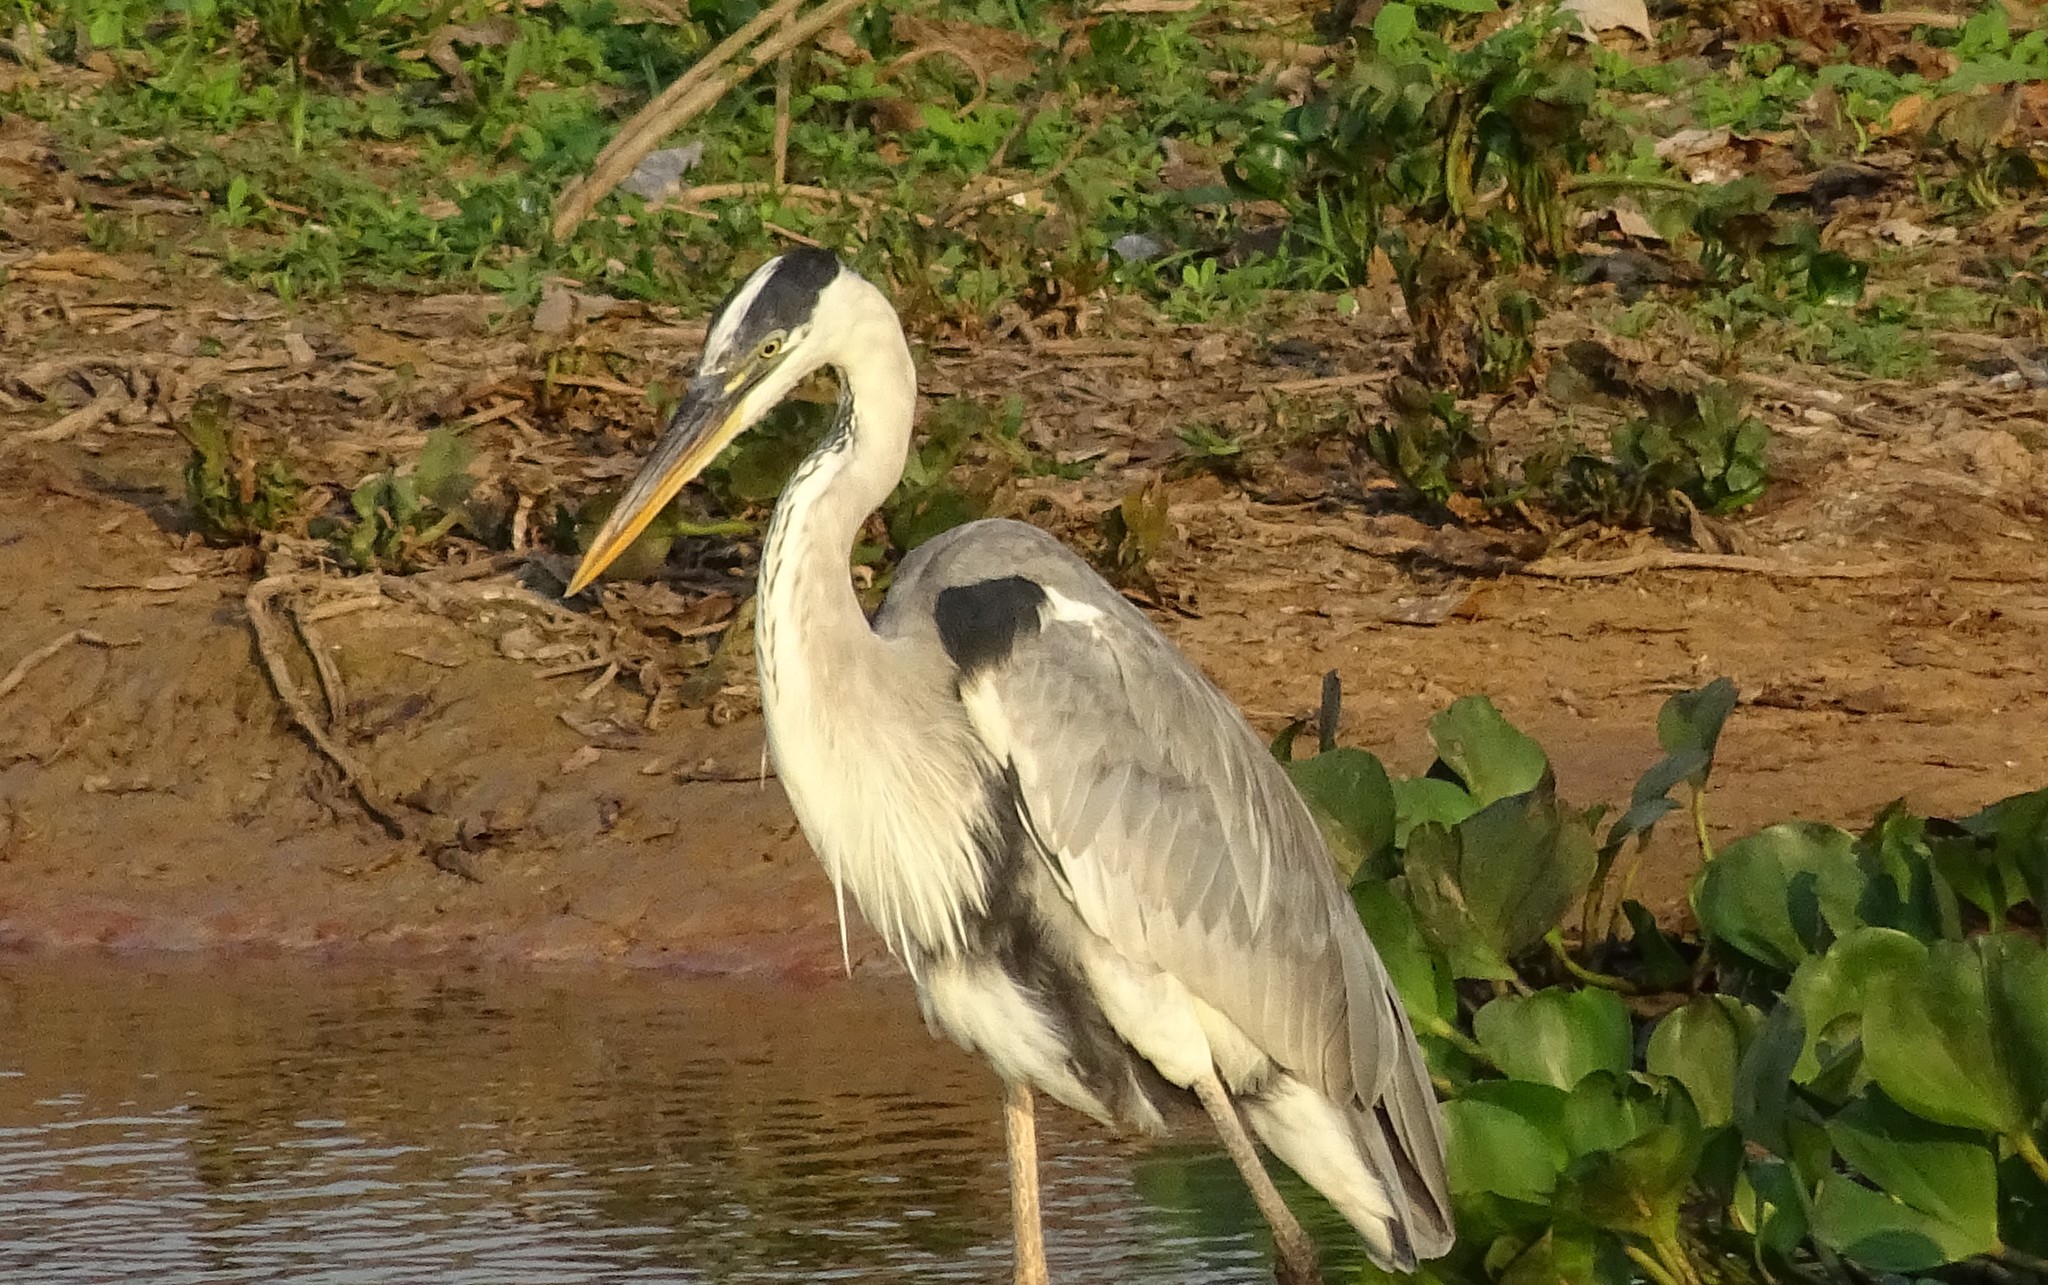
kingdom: Animalia
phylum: Chordata
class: Aves
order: Pelecaniformes
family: Ardeidae
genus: Ardea
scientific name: Ardea cocoi
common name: Cocoi heron
